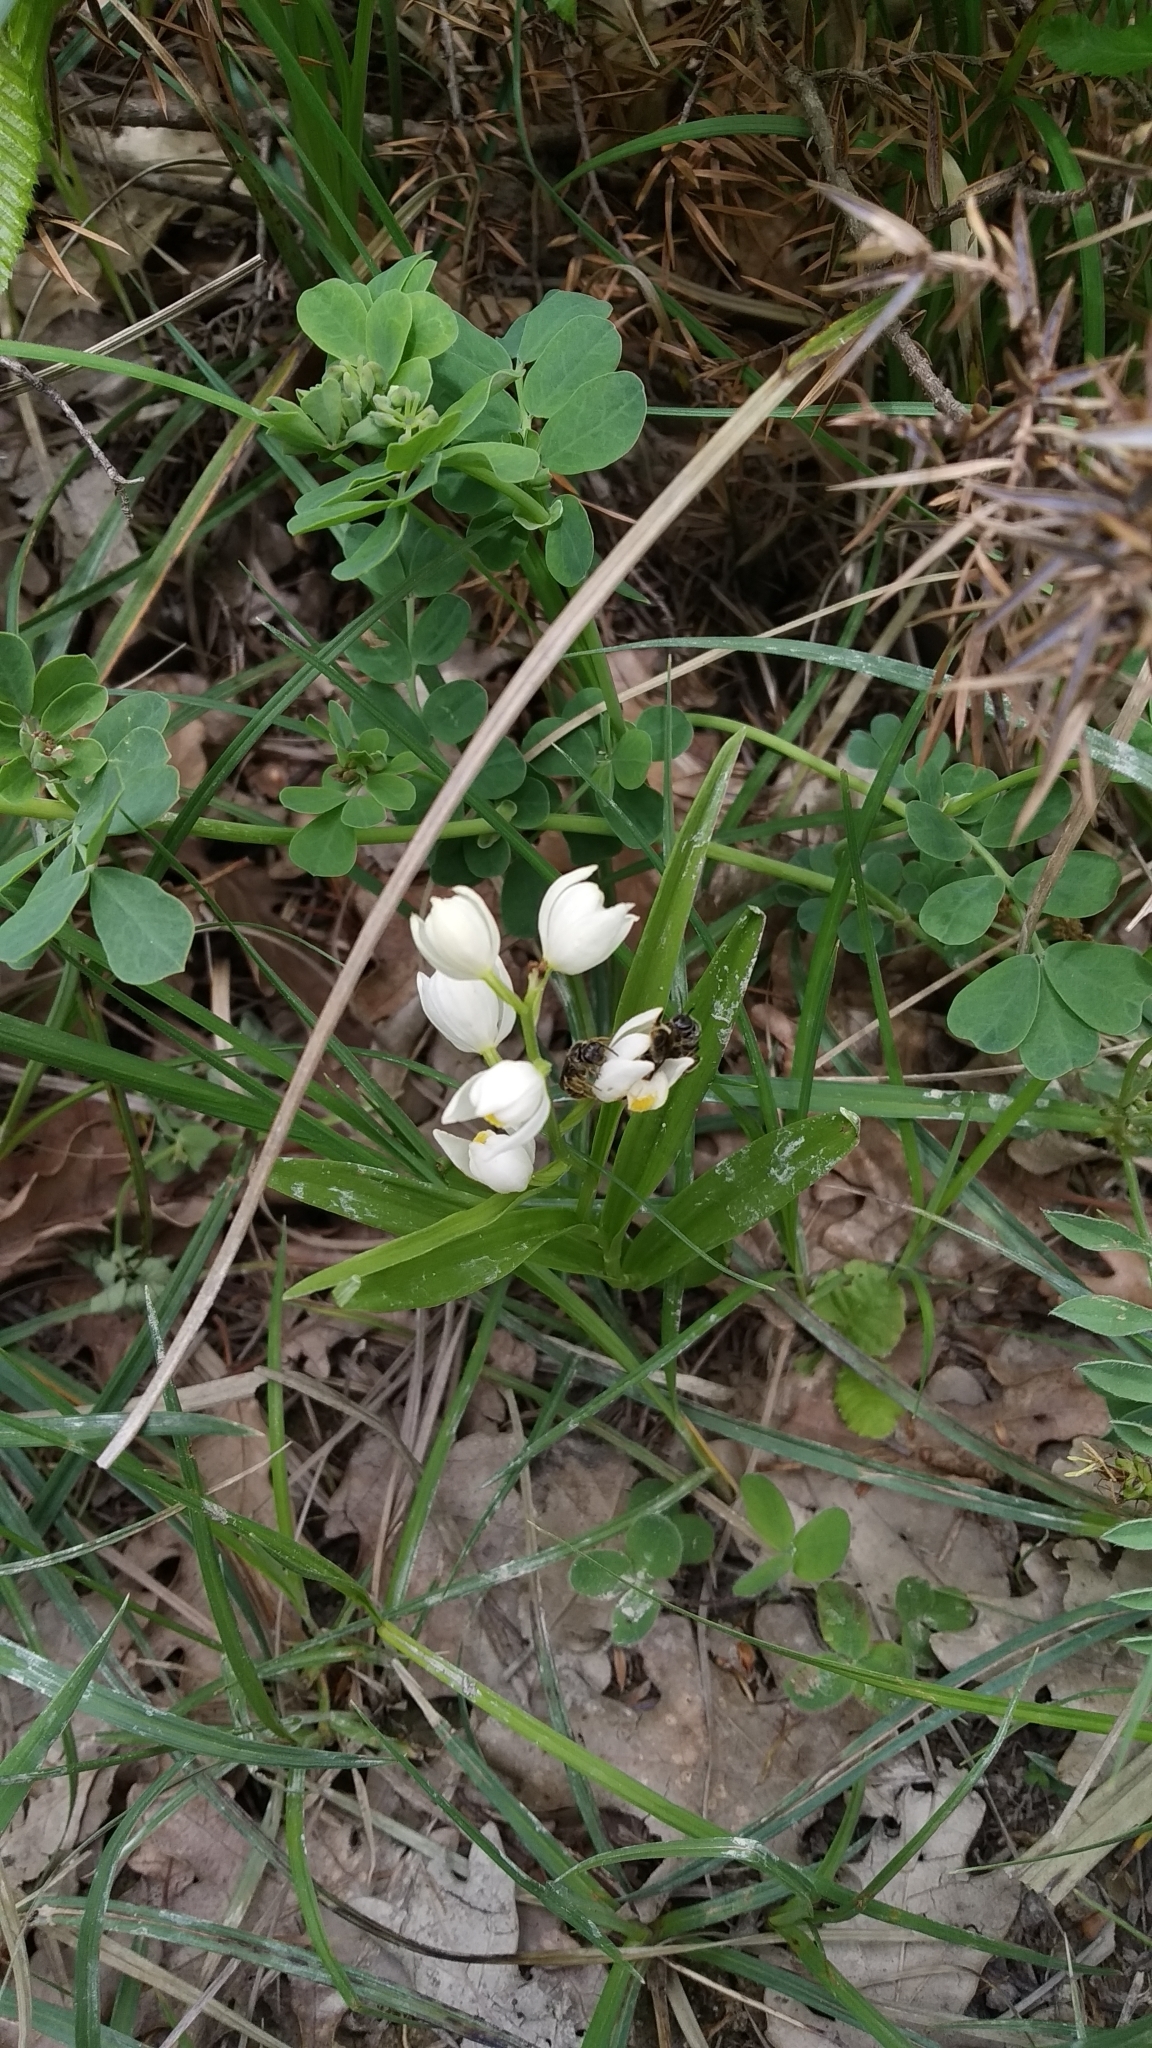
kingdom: Plantae
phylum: Tracheophyta
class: Liliopsida
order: Asparagales
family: Orchidaceae
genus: Cephalanthera
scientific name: Cephalanthera longifolia
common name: Narrow-leaved helleborine
